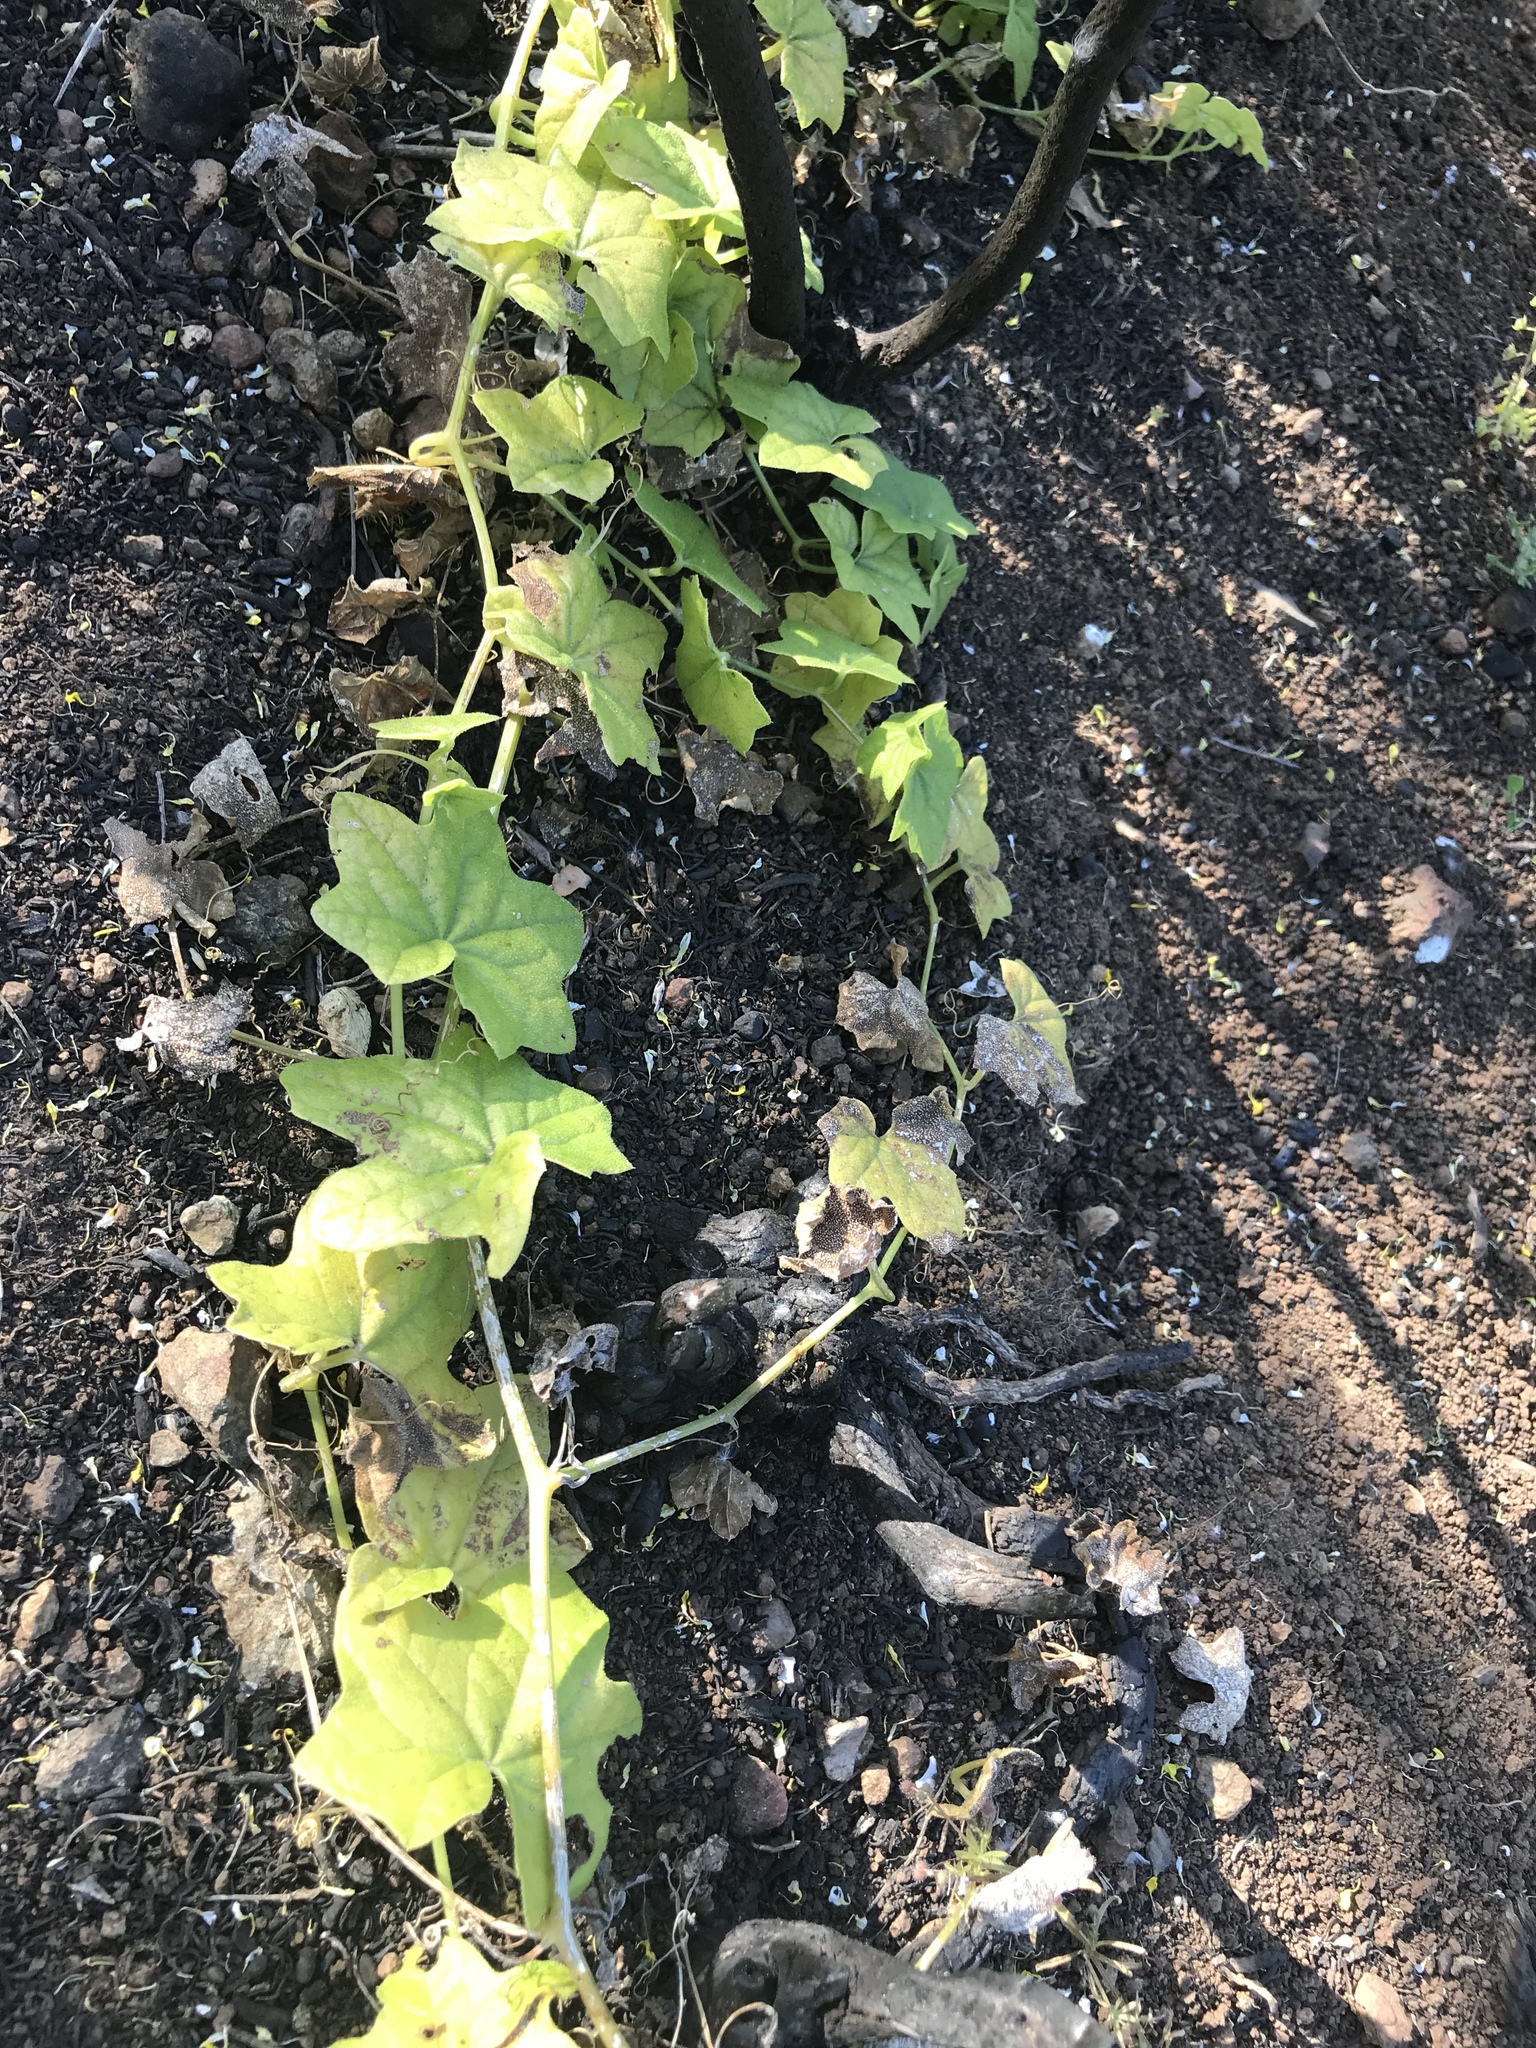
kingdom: Plantae
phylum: Tracheophyta
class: Magnoliopsida
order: Cucurbitales
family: Cucurbitaceae
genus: Marah
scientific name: Marah macrocarpa
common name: Cucamonga manroot
